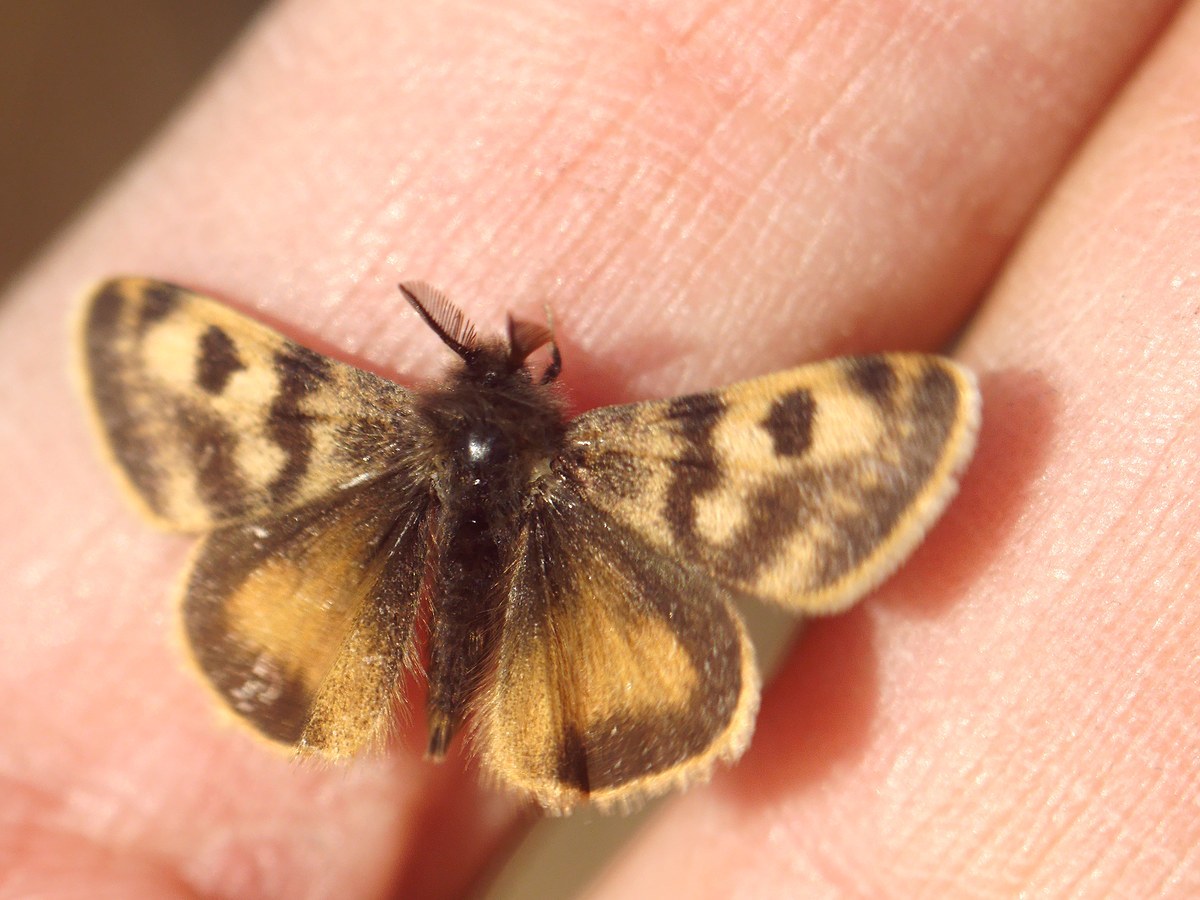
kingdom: Animalia
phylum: Arthropoda
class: Insecta
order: Lepidoptera
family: Erebidae
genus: Orgyia
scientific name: Orgyia dubia
